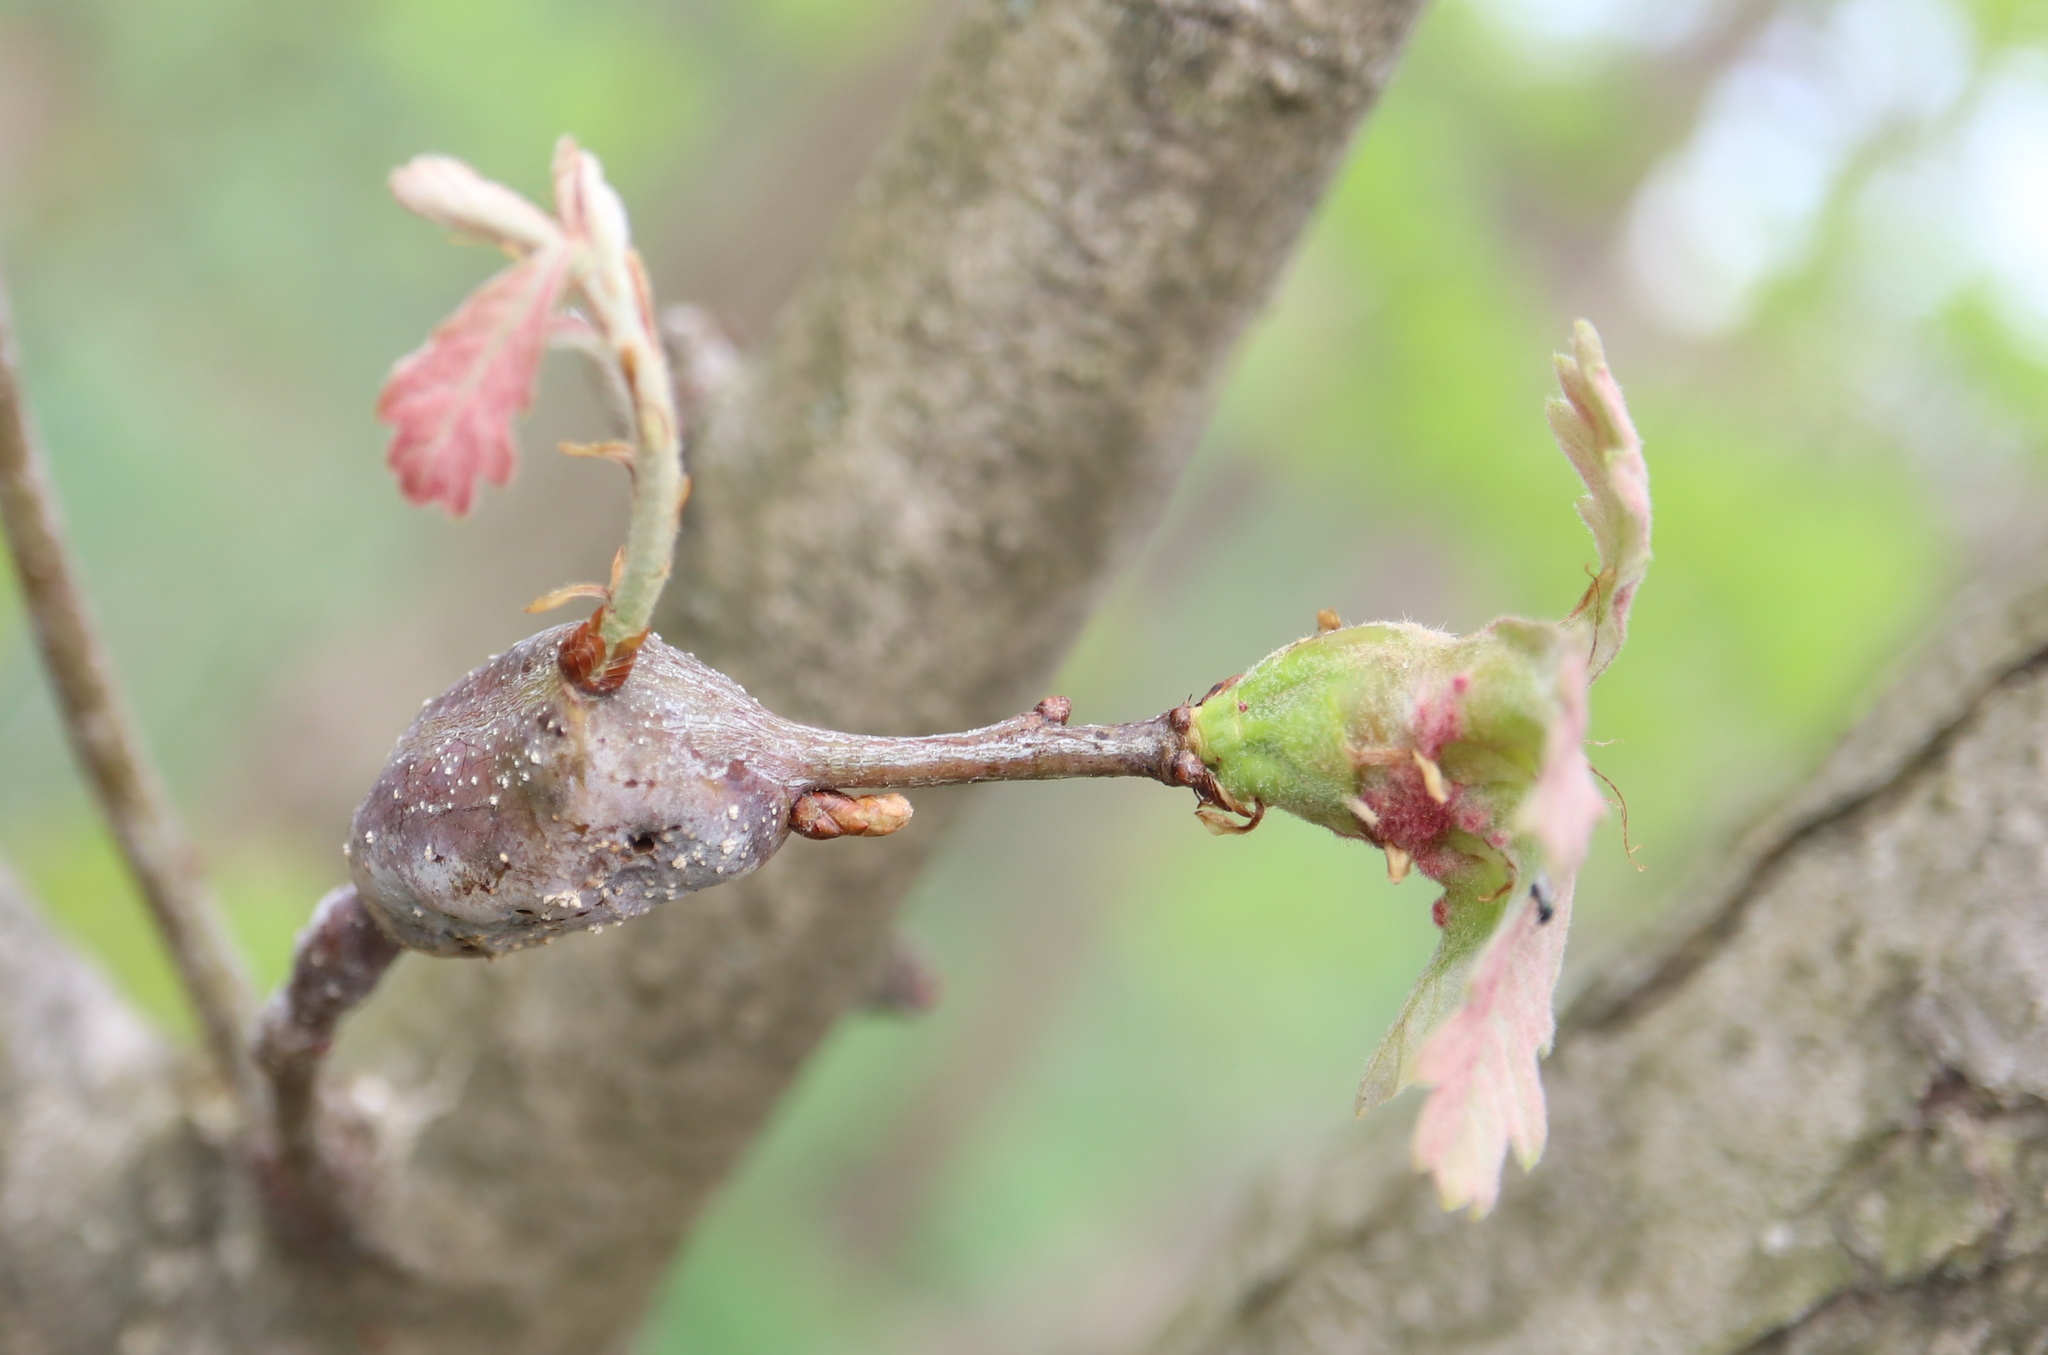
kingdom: Animalia
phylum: Arthropoda
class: Insecta
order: Hymenoptera
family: Cynipidae
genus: Neuroterus
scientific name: Neuroterus quercusbaccarum
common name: Common spangle gall
